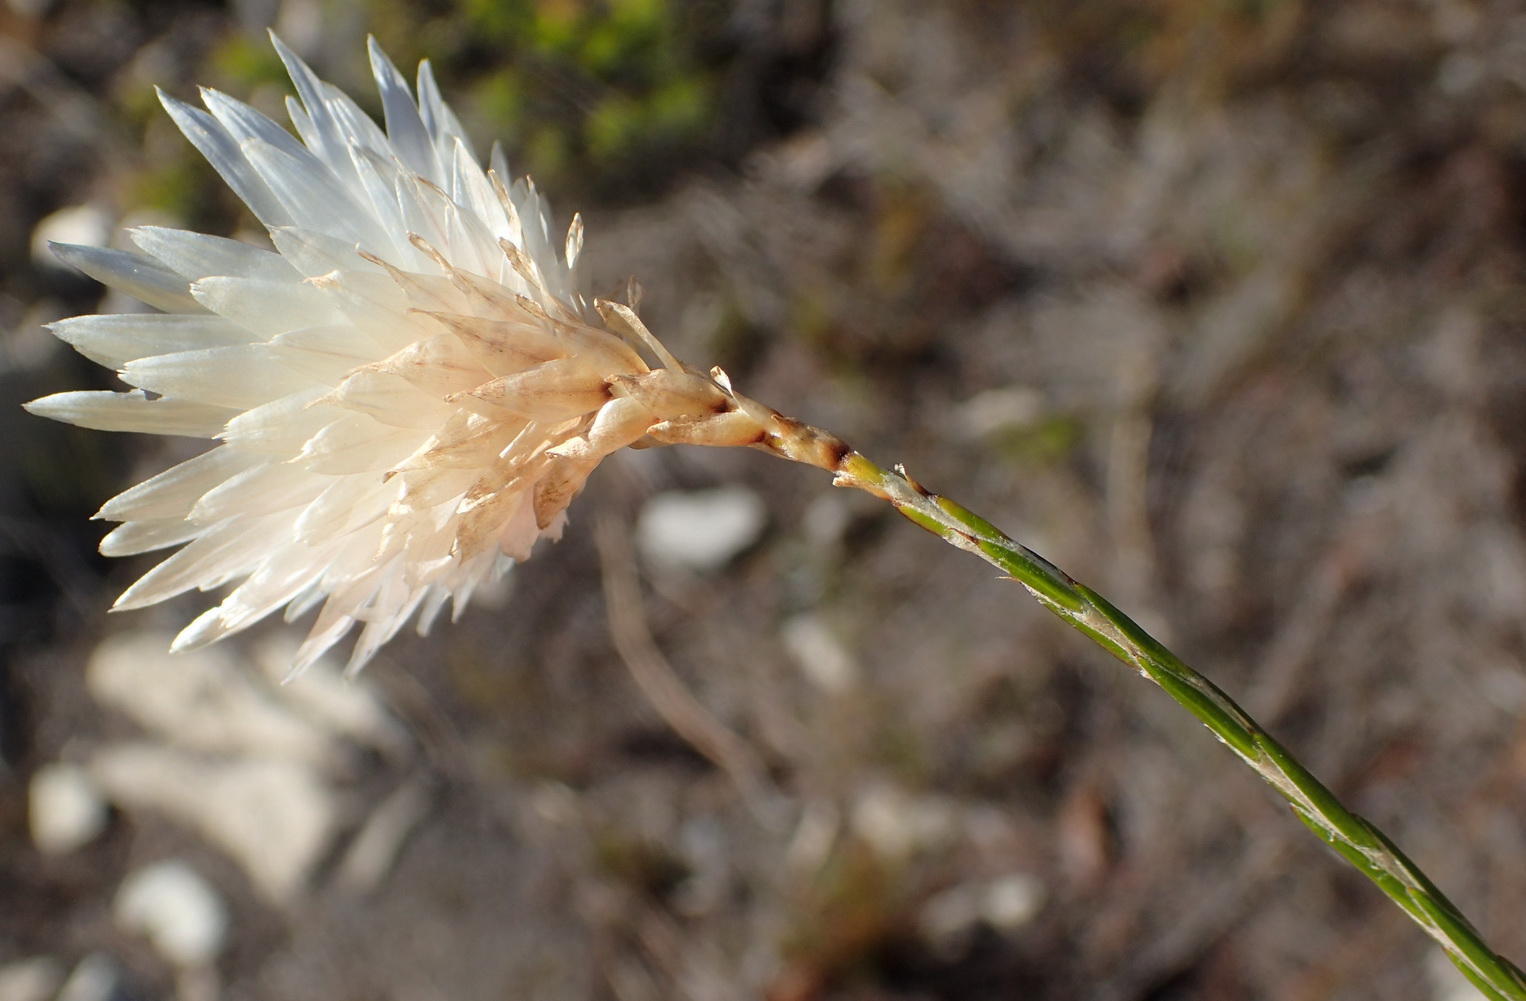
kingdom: Plantae
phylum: Tracheophyta
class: Magnoliopsida
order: Asterales
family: Asteraceae
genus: Edmondia
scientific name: Edmondia sesamoides
